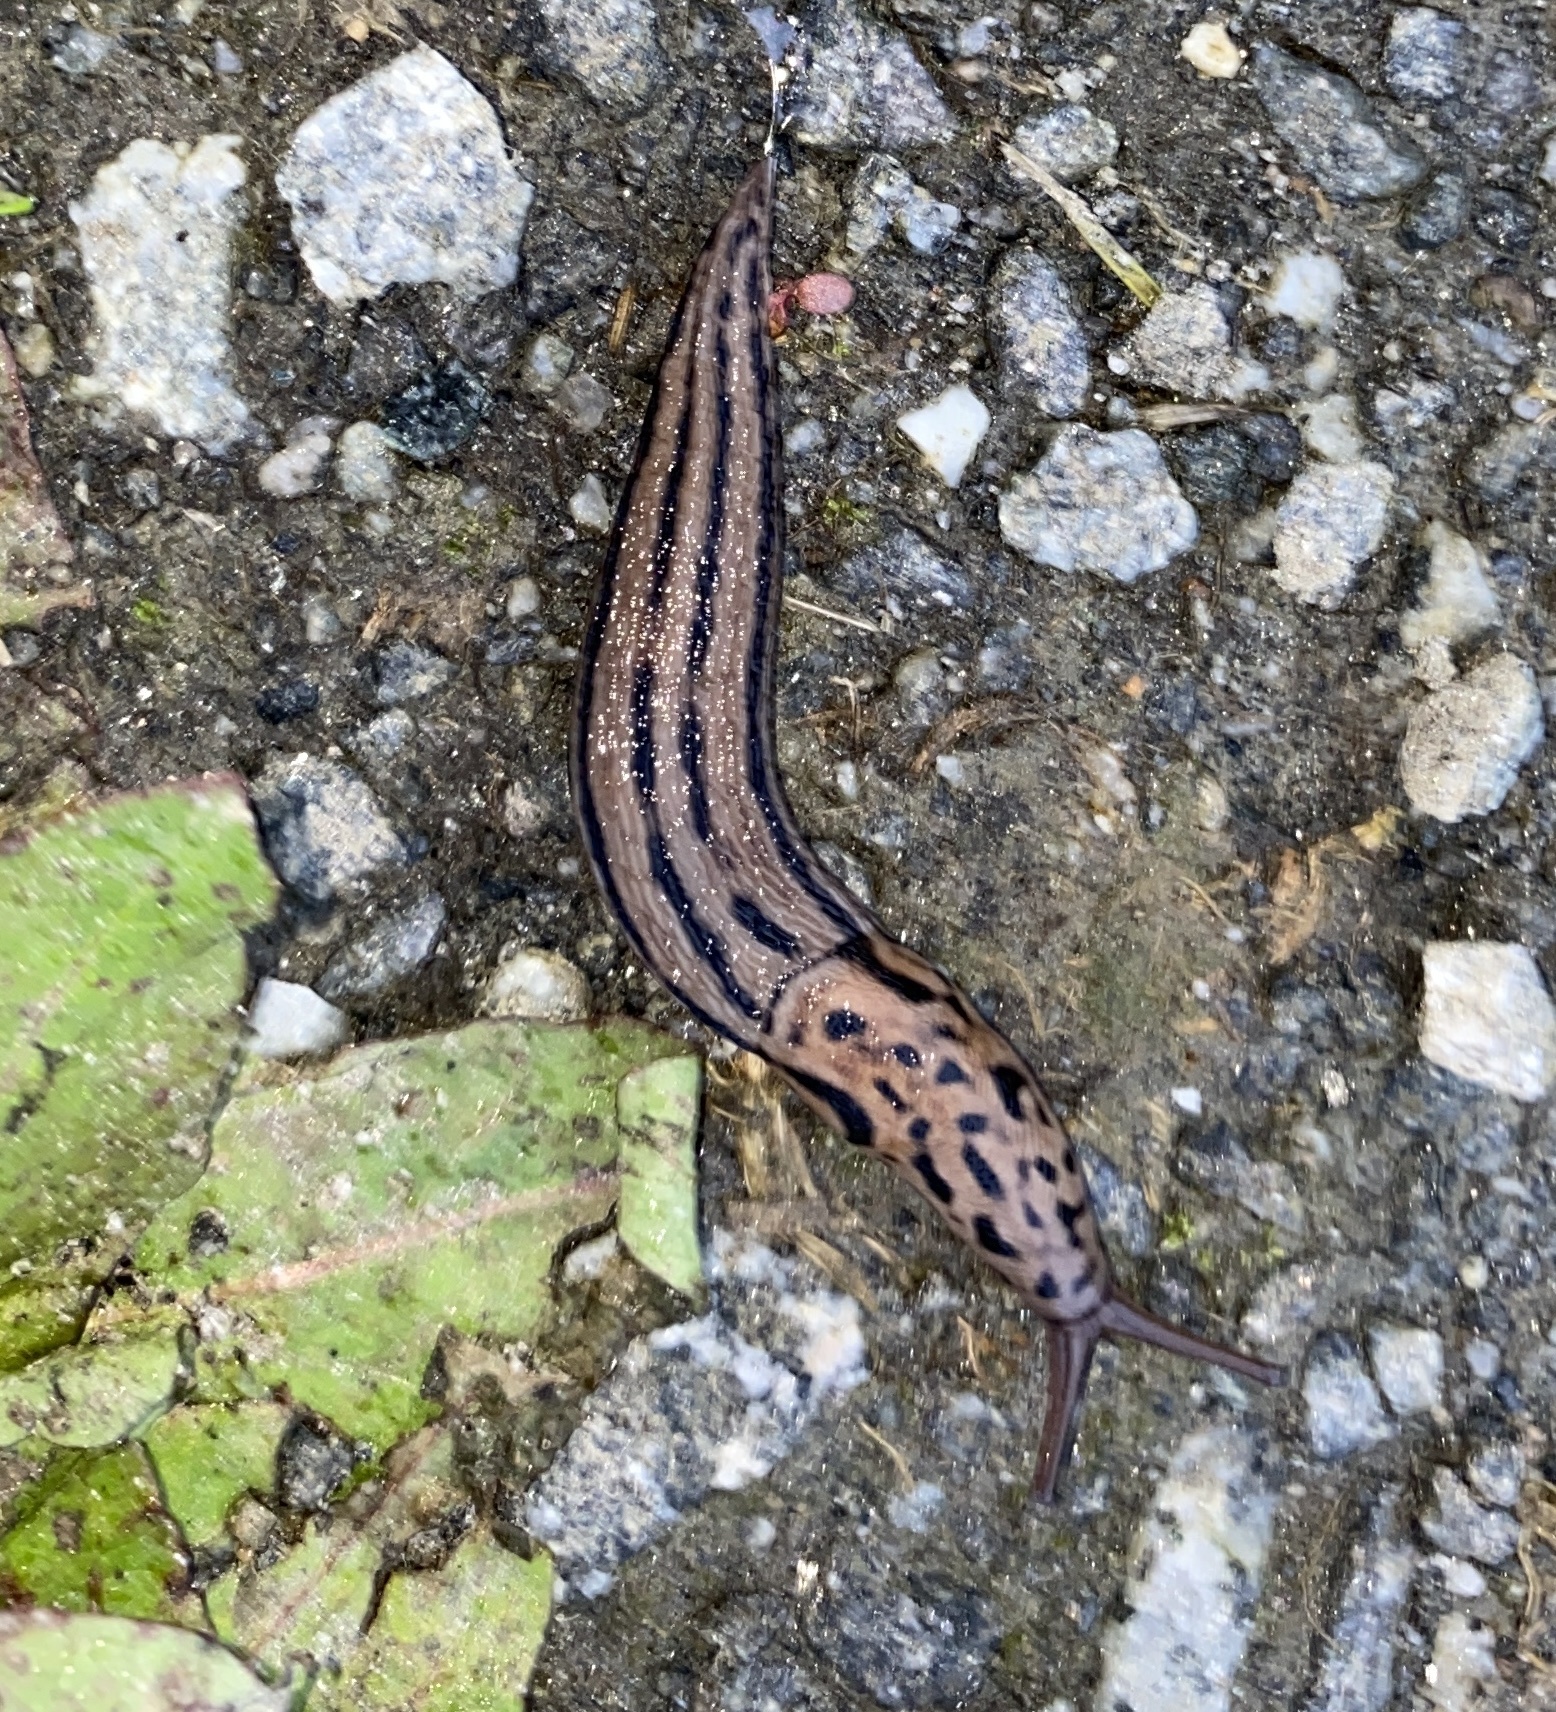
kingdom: Animalia
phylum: Mollusca
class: Gastropoda
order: Stylommatophora
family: Limacidae
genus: Limax
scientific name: Limax maximus
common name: Great grey slug
